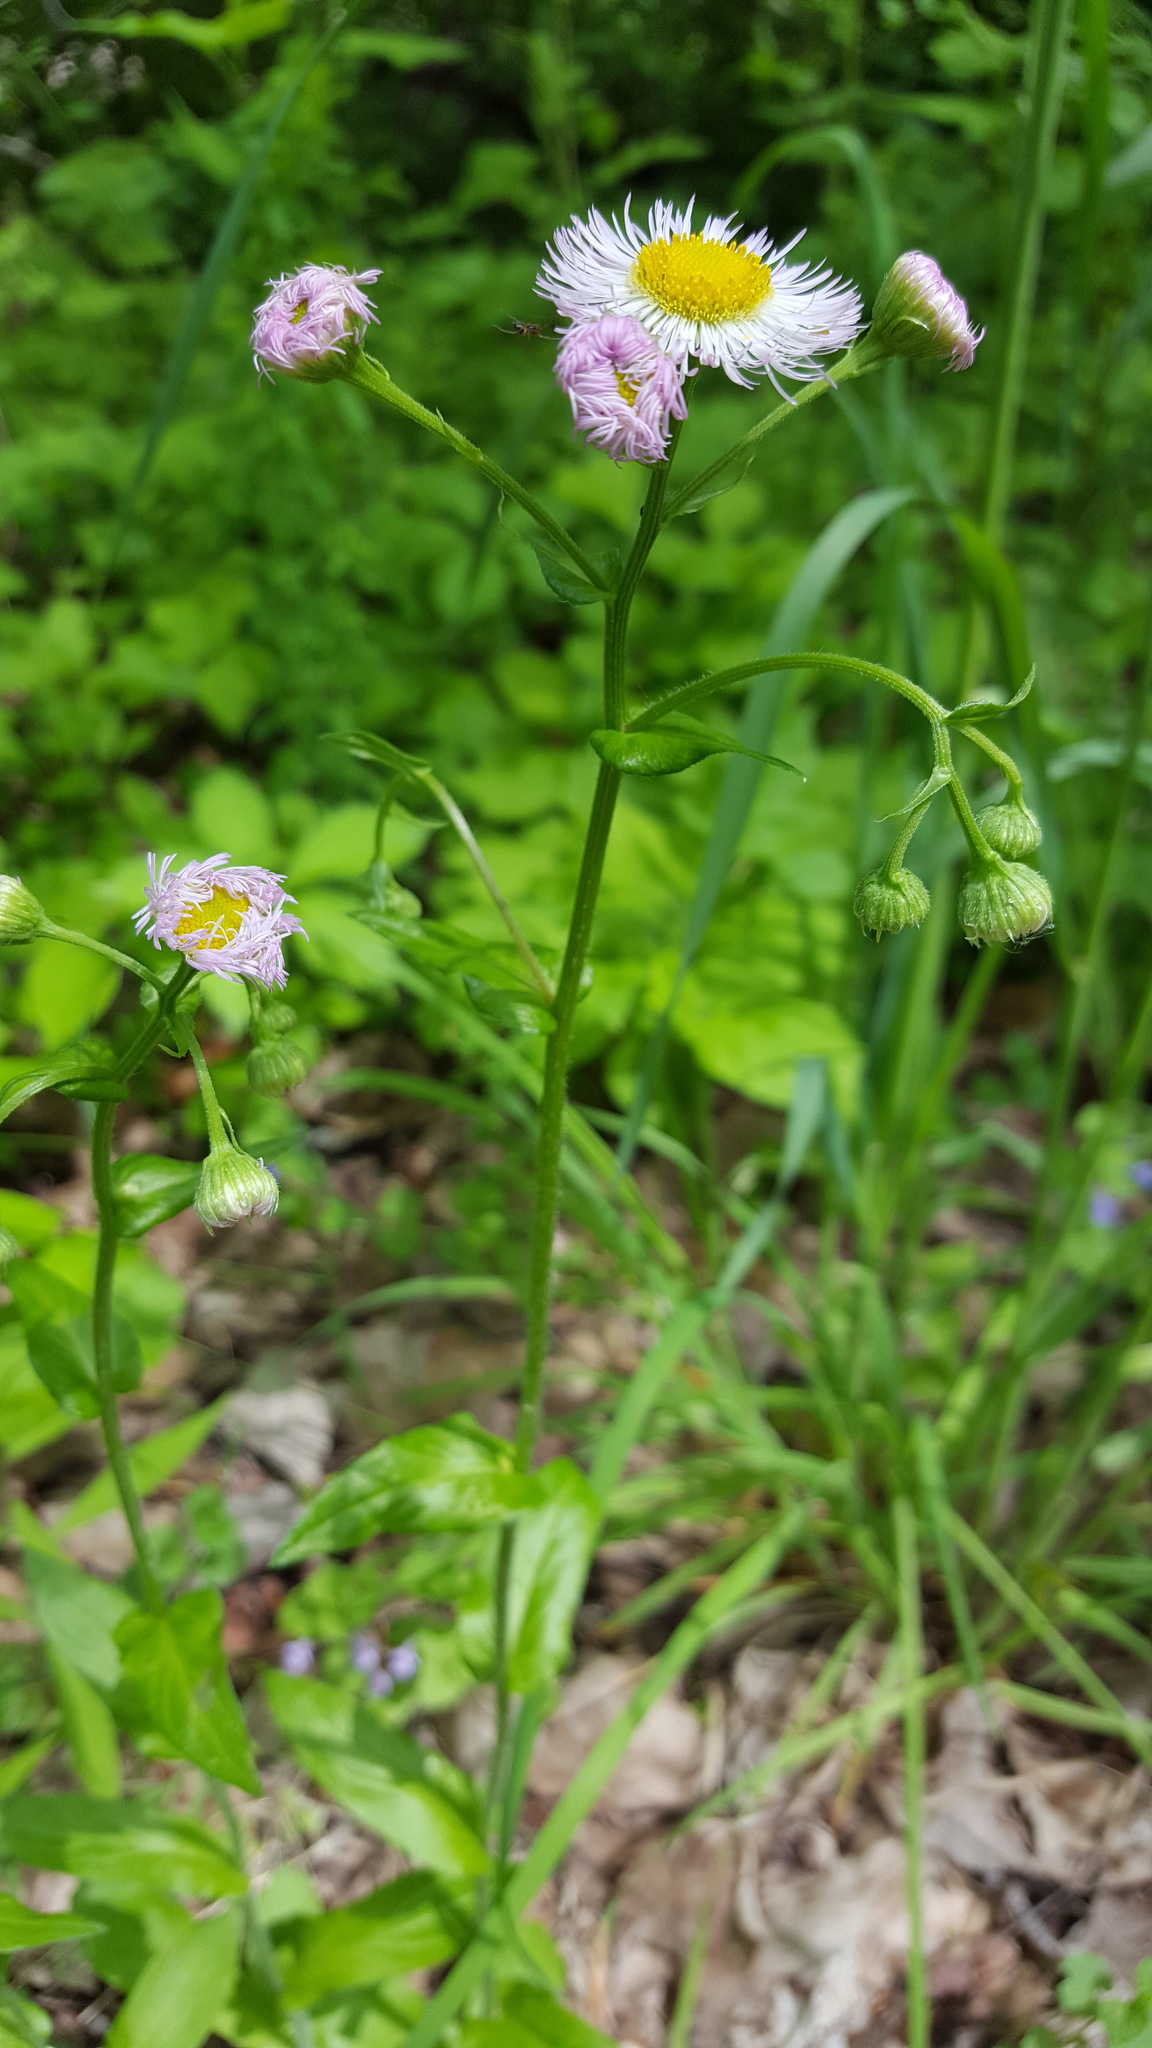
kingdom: Plantae
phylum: Tracheophyta
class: Magnoliopsida
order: Asterales
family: Asteraceae
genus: Erigeron
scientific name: Erigeron philadelphicus
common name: Robin's-plantain
